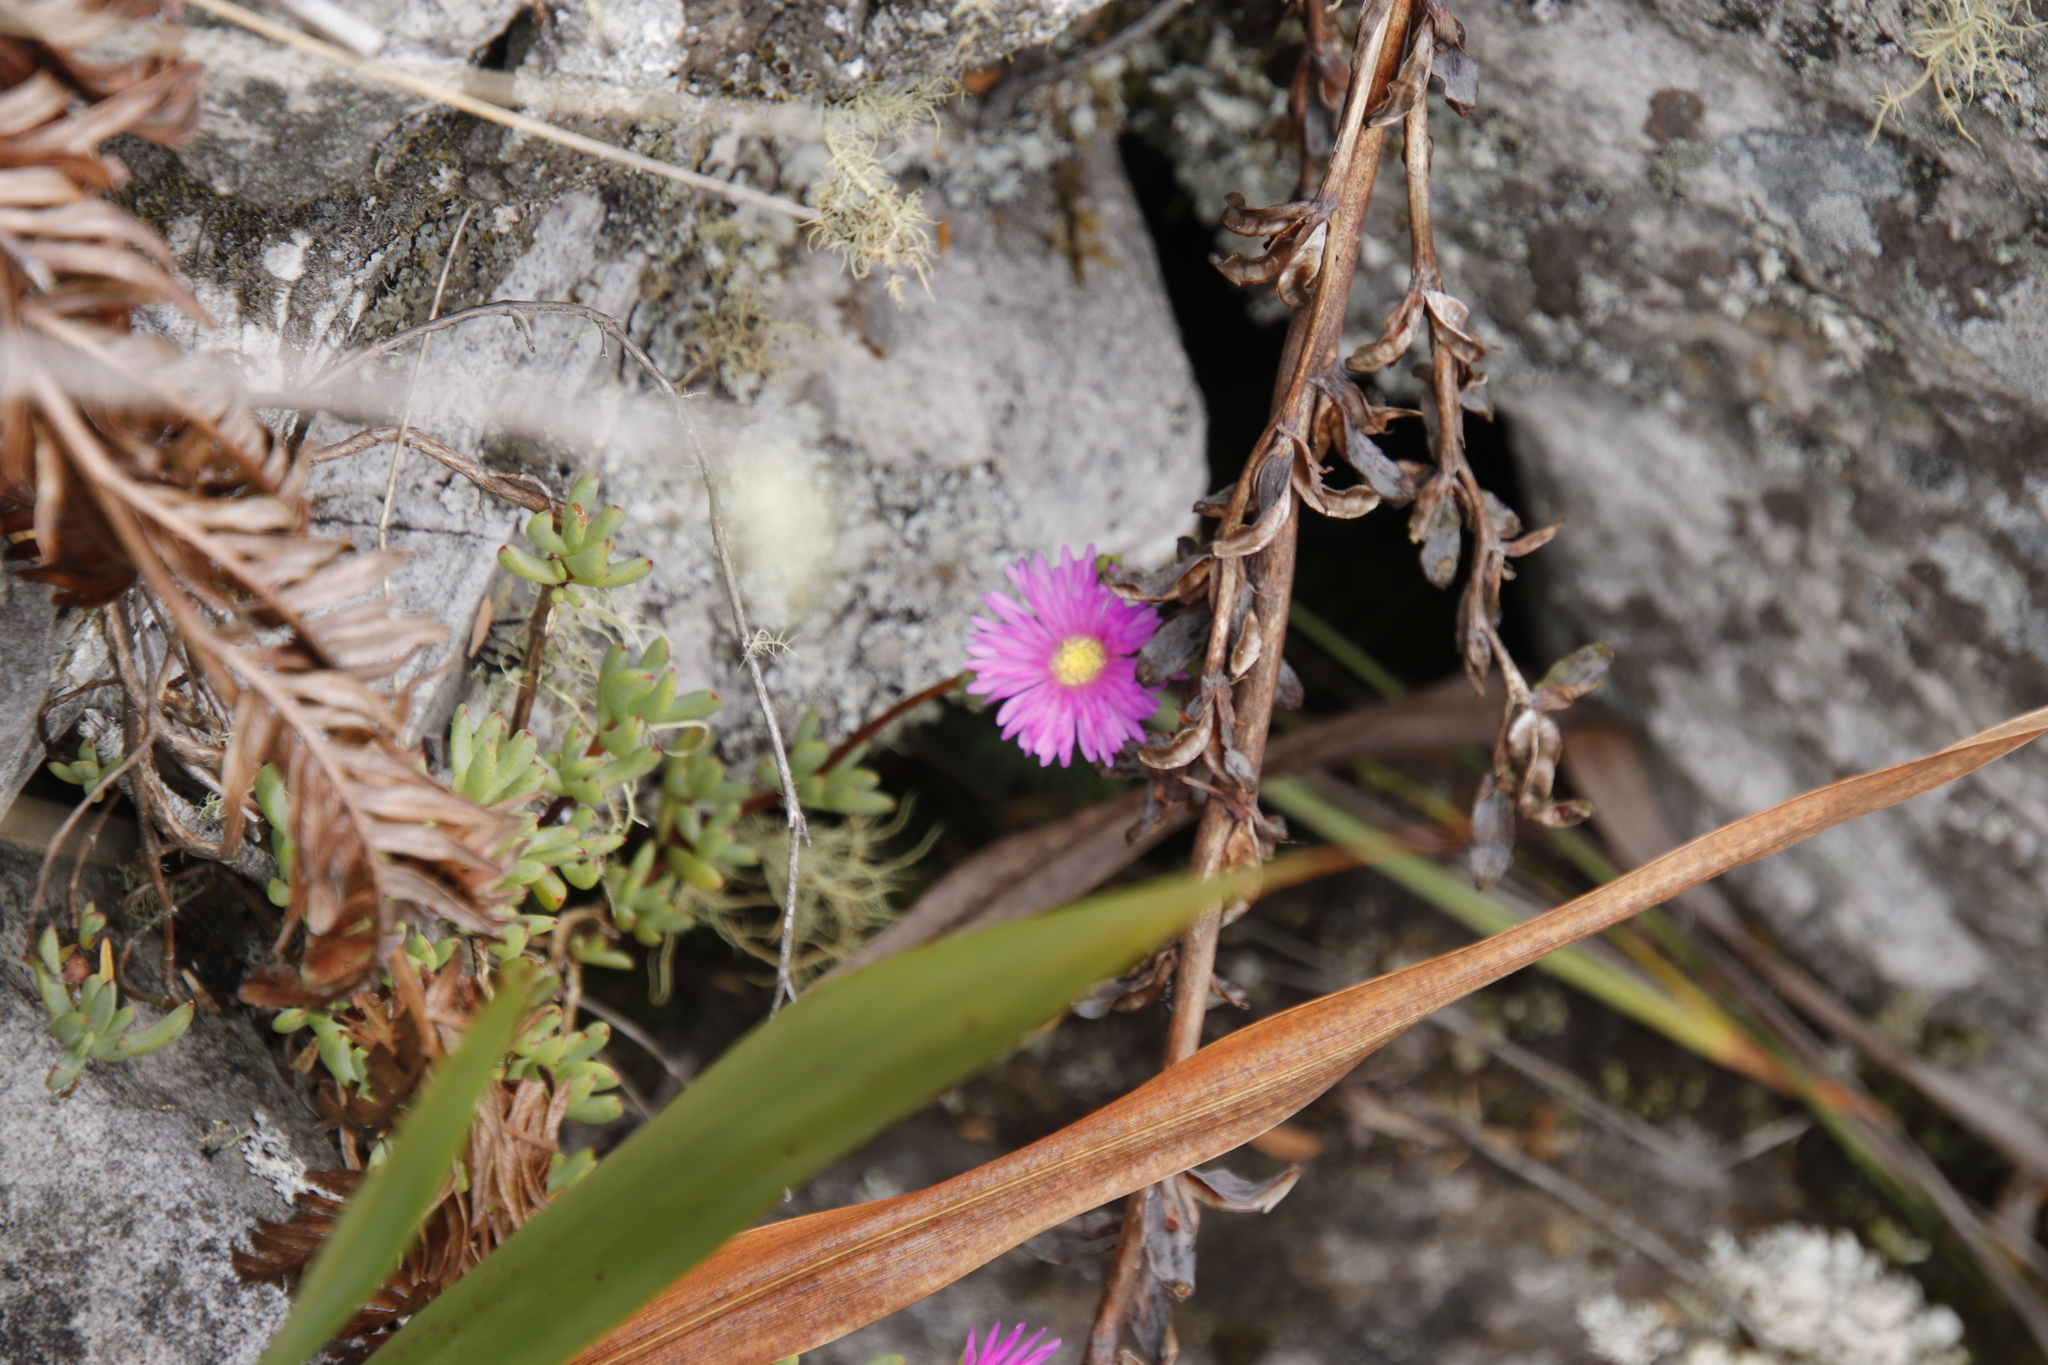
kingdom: Plantae
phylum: Tracheophyta
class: Magnoliopsida
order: Caryophyllales
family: Aizoaceae
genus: Oscularia
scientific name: Oscularia falciformis
